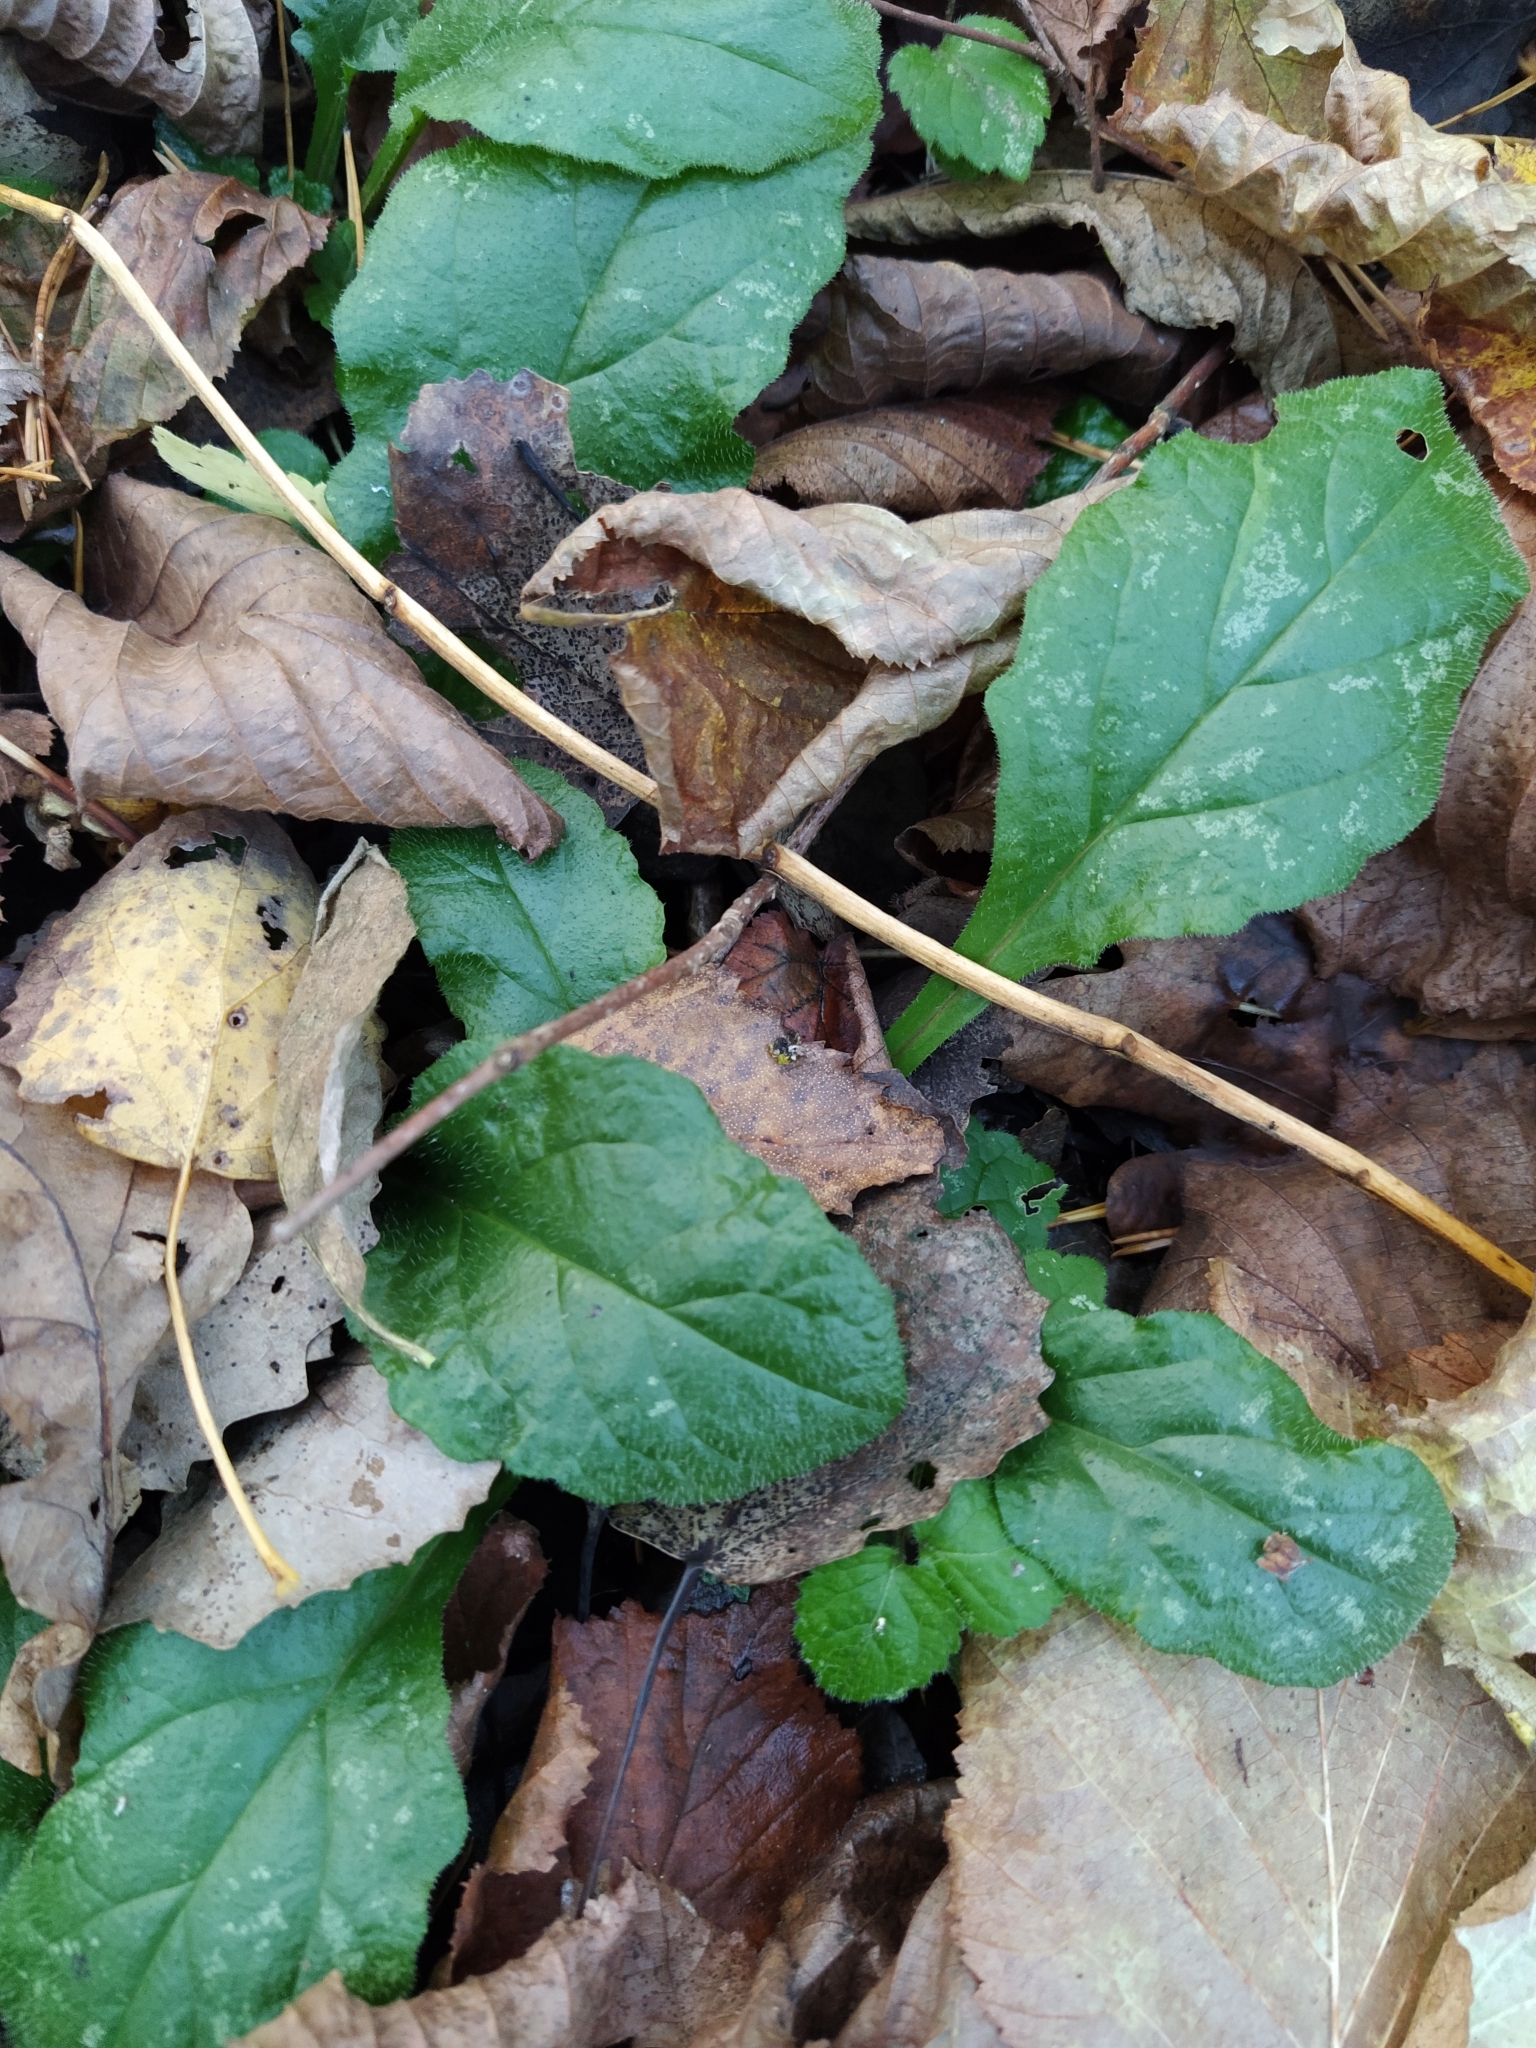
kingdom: Plantae
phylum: Tracheophyta
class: Magnoliopsida
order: Lamiales
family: Lamiaceae
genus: Ajuga
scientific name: Ajuga reptans
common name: Bugle
